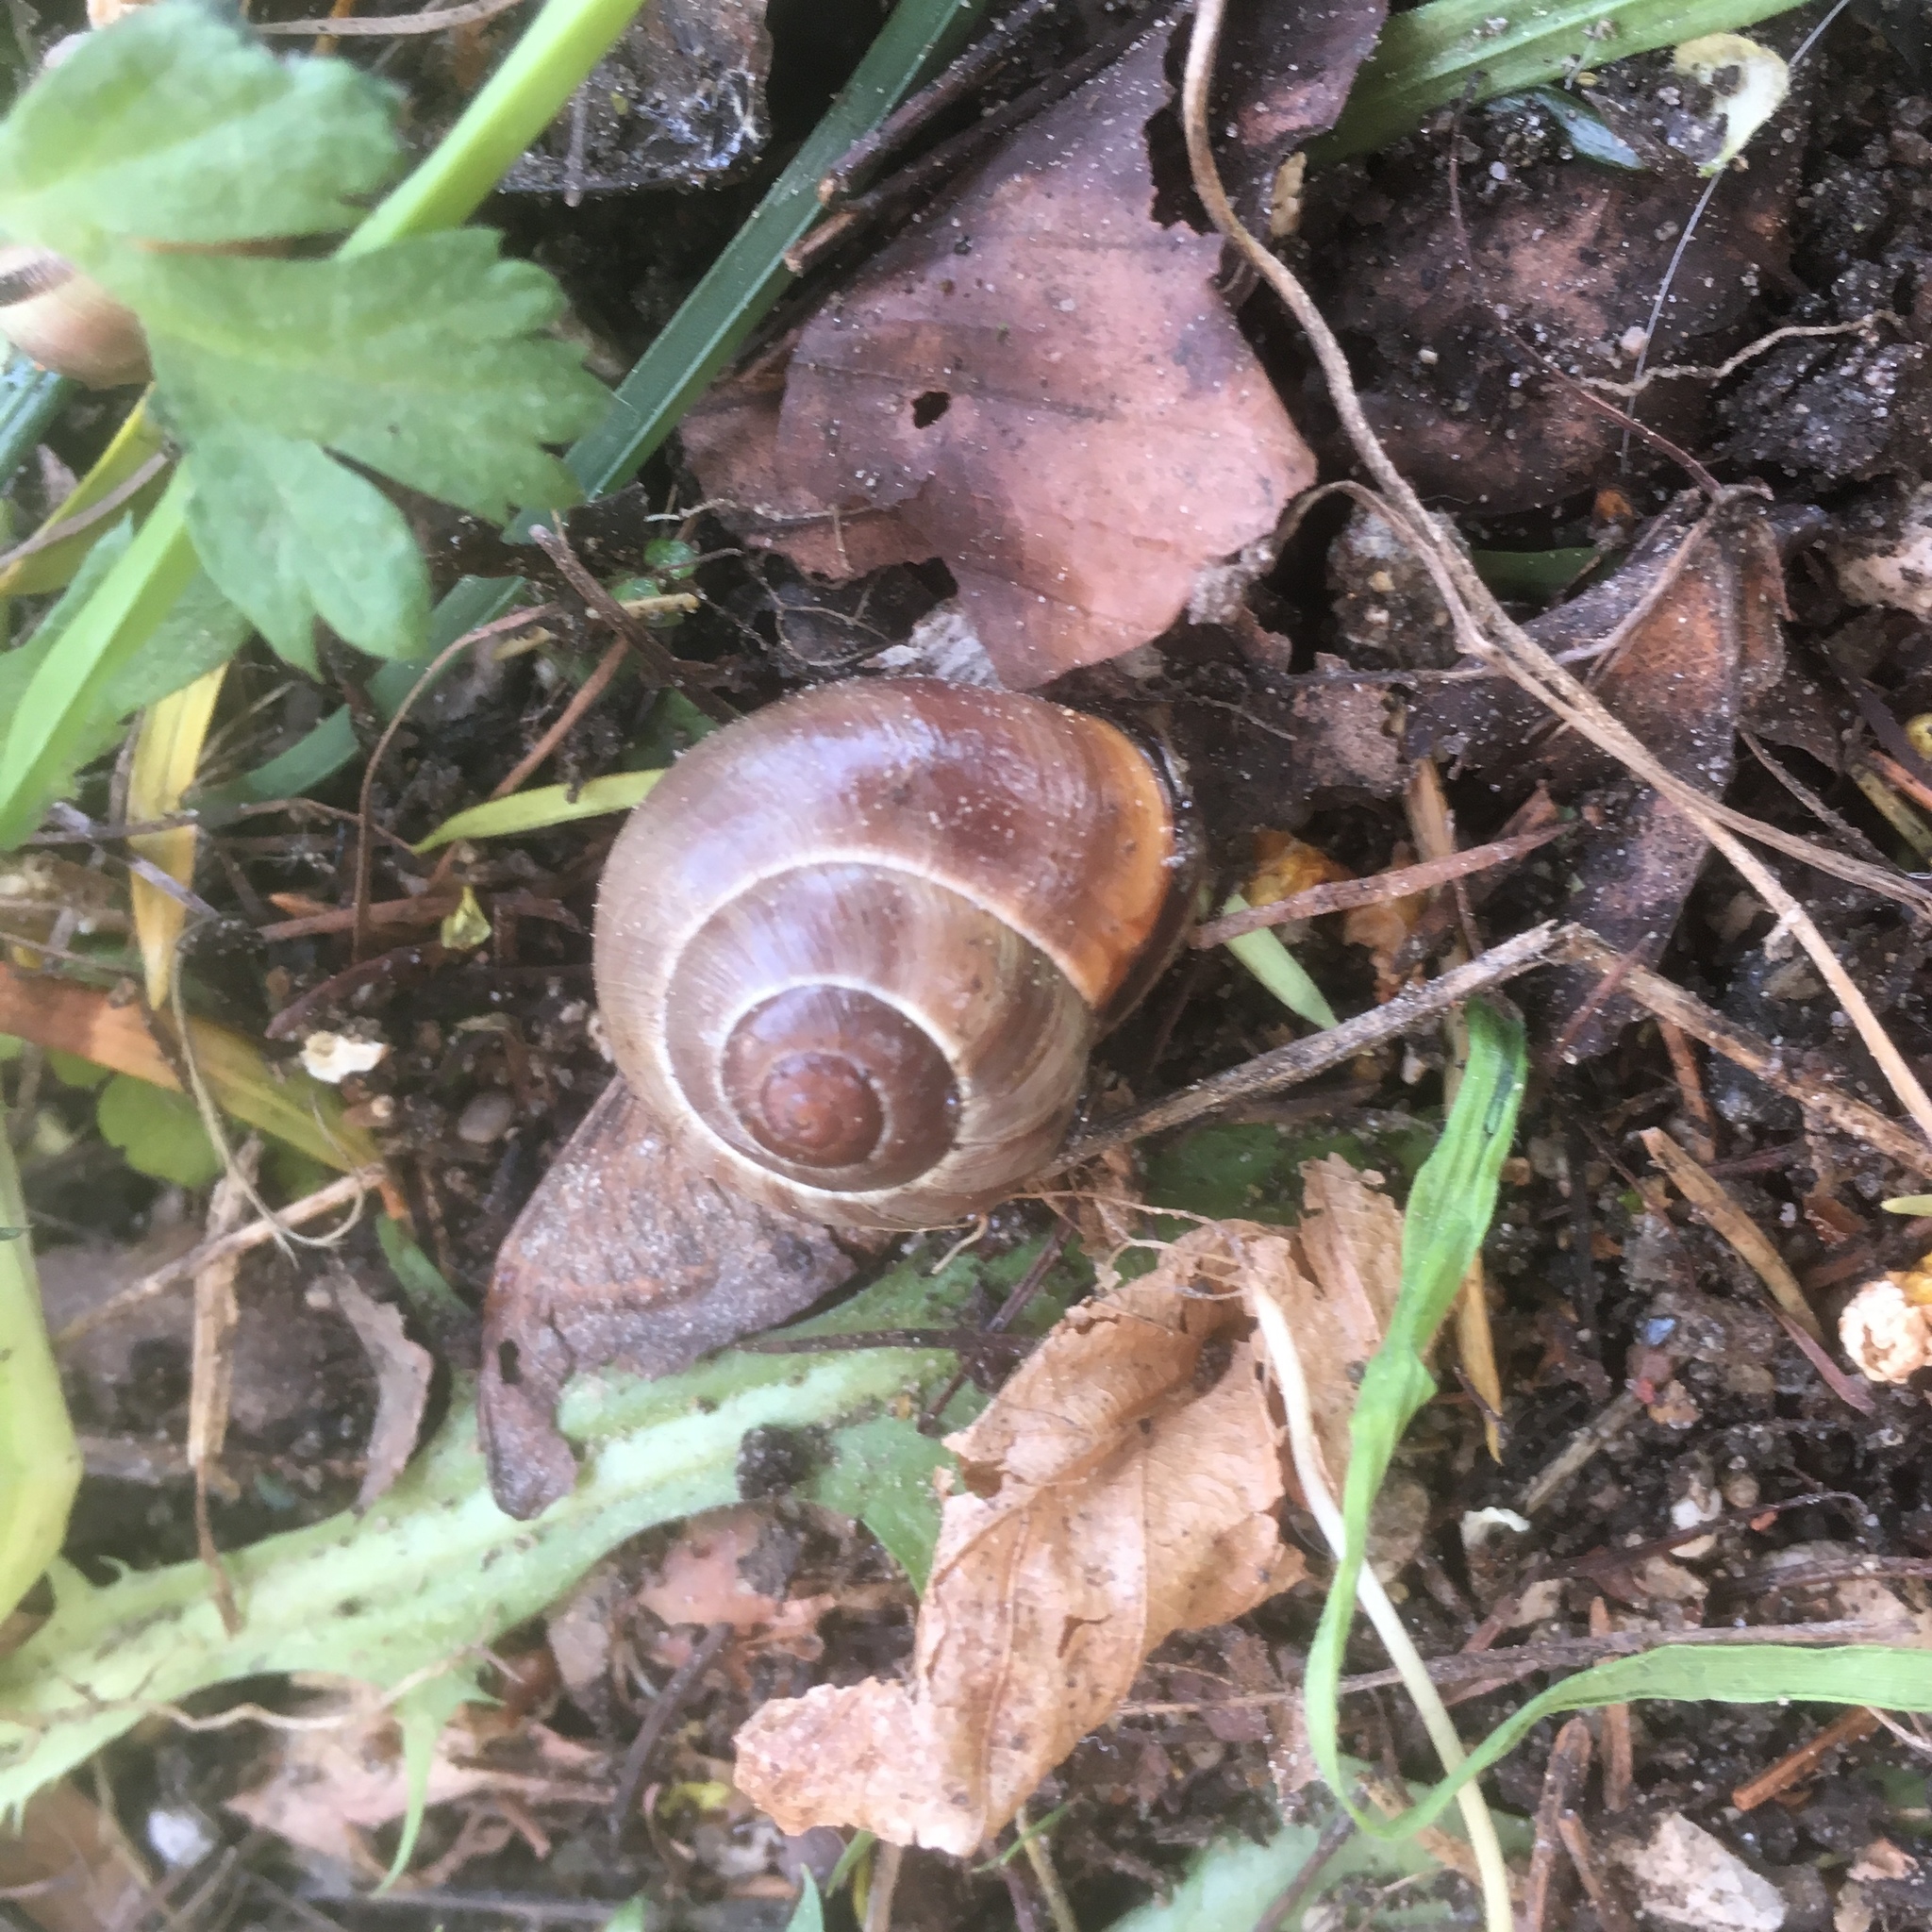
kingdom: Animalia
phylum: Mollusca
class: Gastropoda
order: Stylommatophora
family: Helicidae
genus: Cepaea
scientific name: Cepaea nemoralis
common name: Grovesnail
